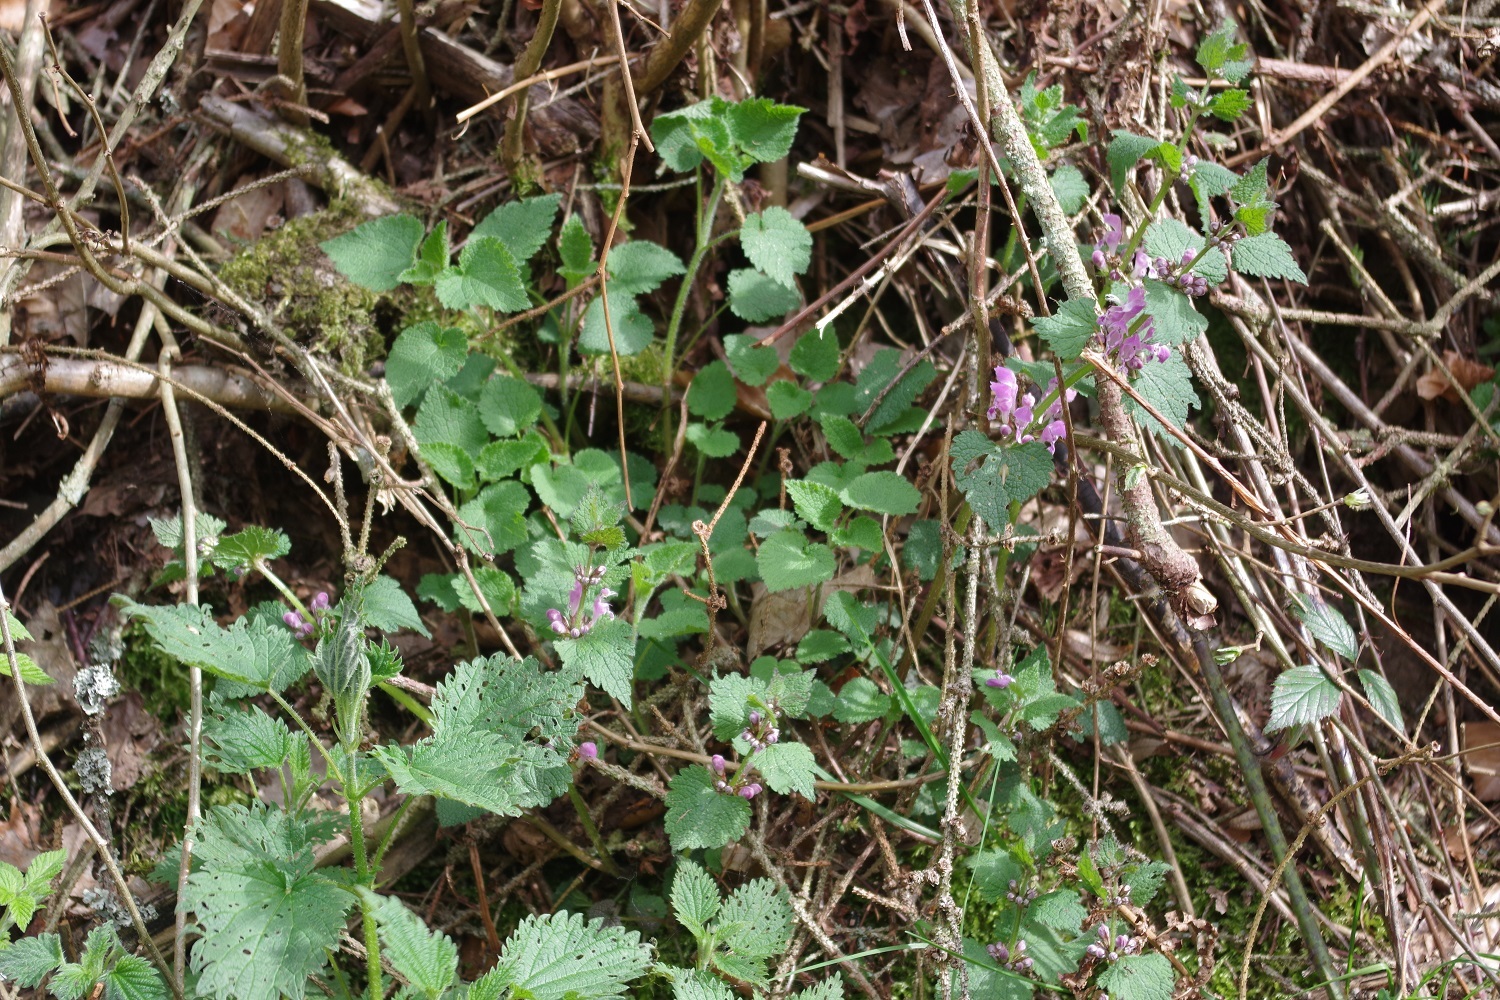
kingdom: Plantae
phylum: Tracheophyta
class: Magnoliopsida
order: Lamiales
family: Lamiaceae
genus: Lamium
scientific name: Lamium maculatum
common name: Spotted dead-nettle
